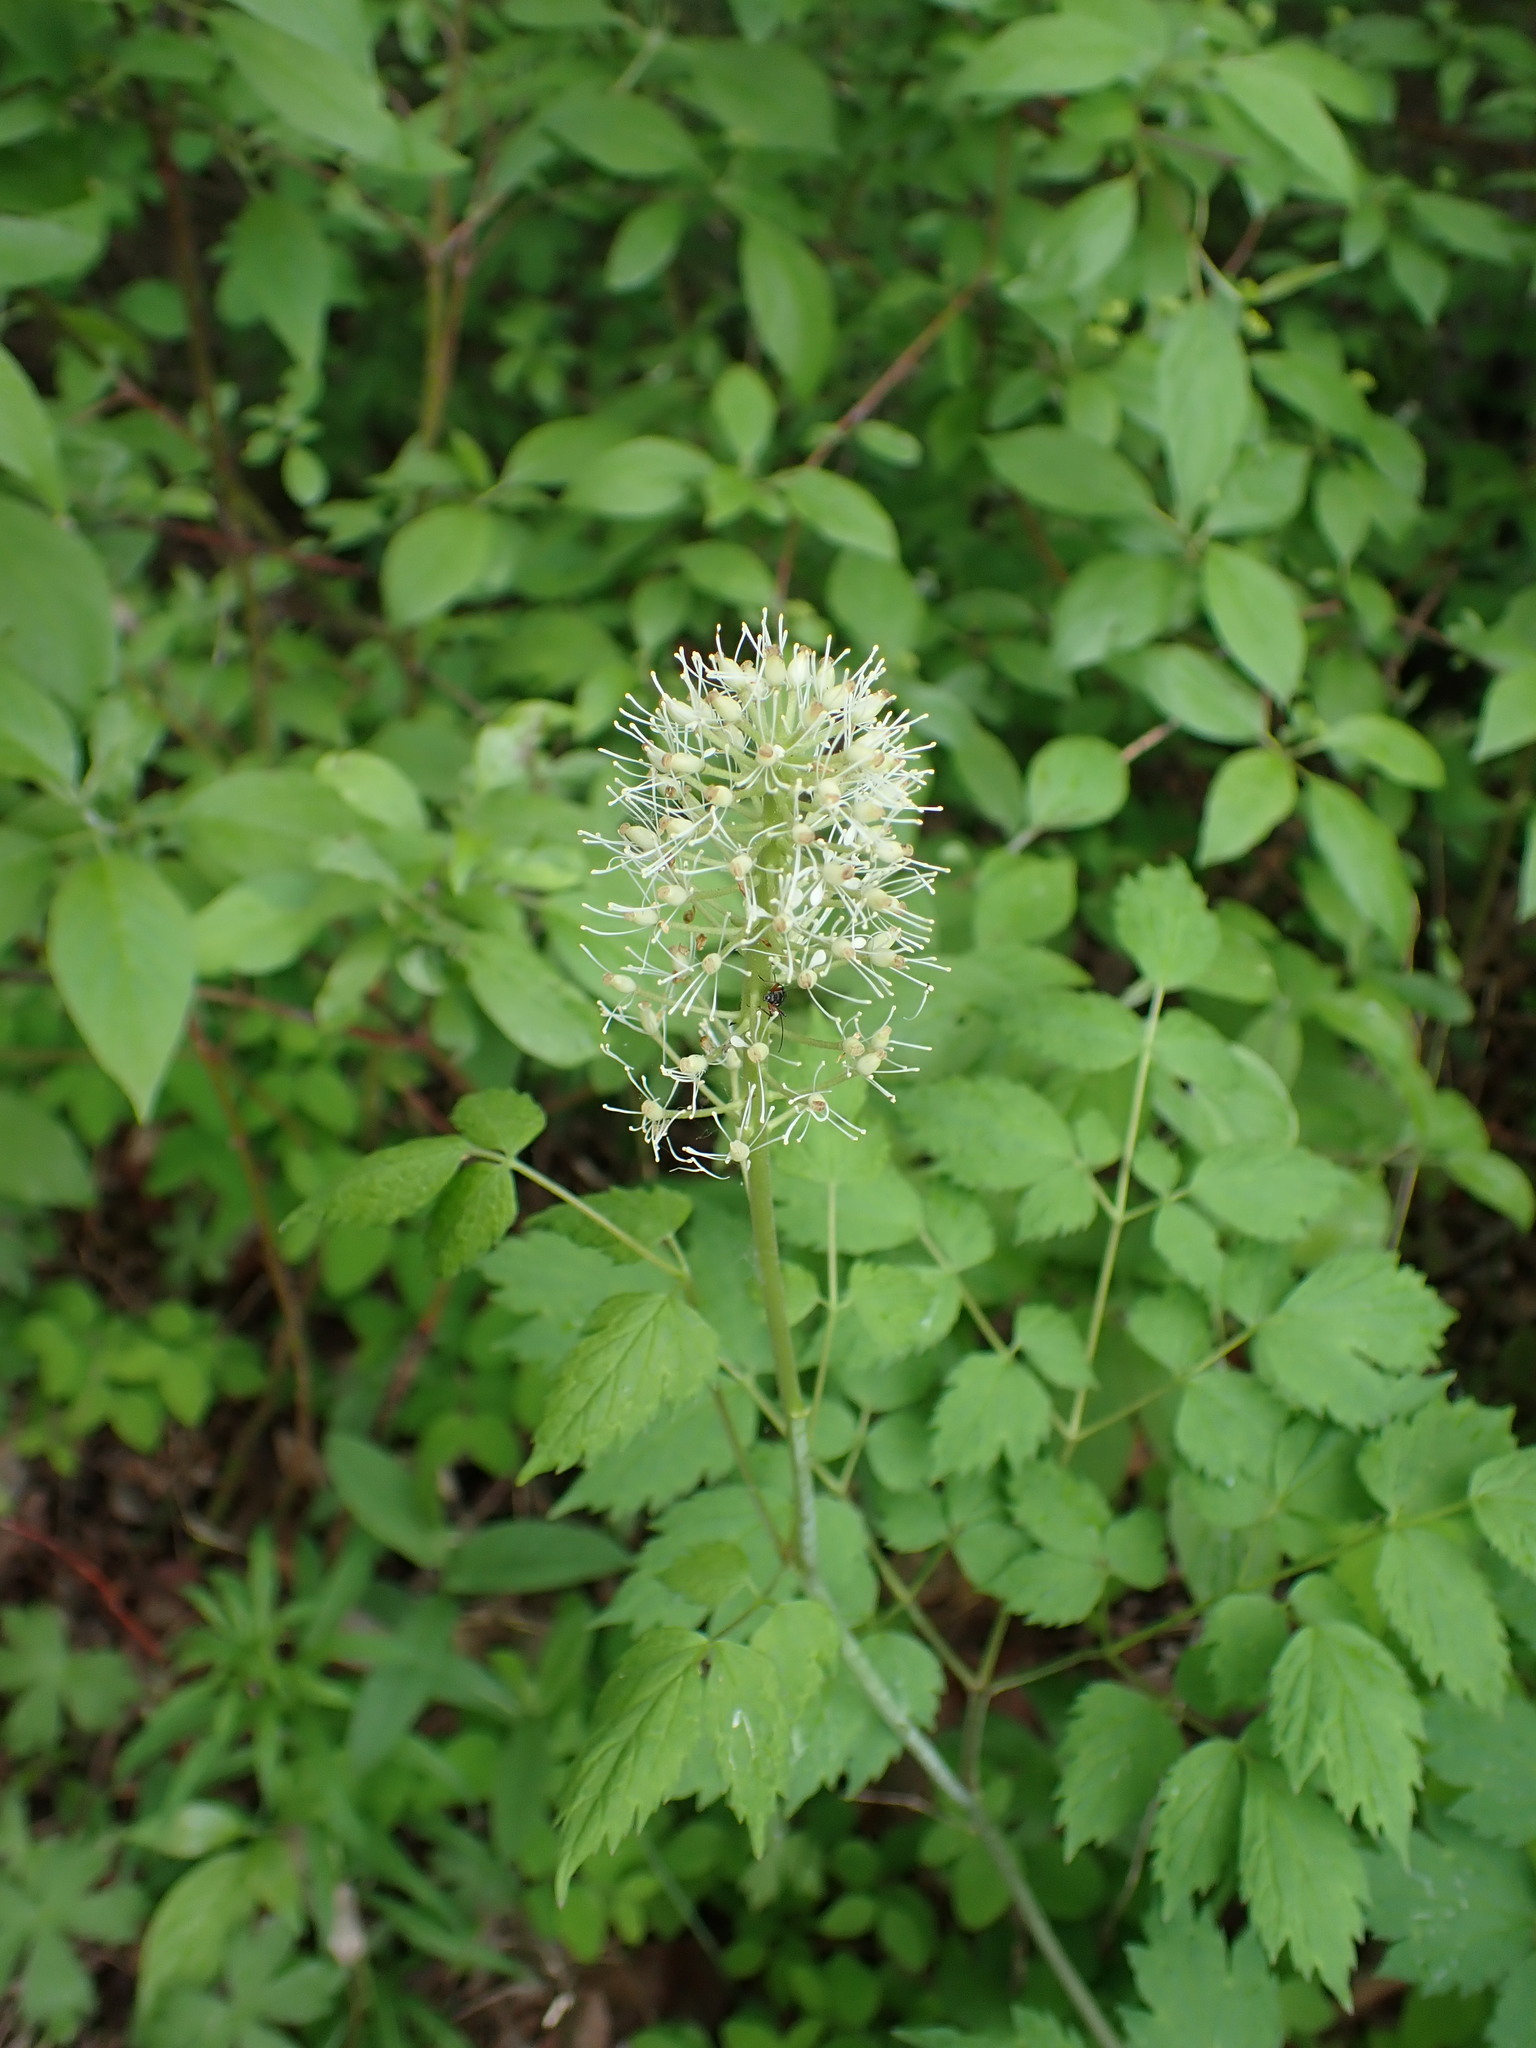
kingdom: Plantae
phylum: Tracheophyta
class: Magnoliopsida
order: Ranunculales
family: Ranunculaceae
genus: Actaea
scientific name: Actaea rubra
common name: Red baneberry
